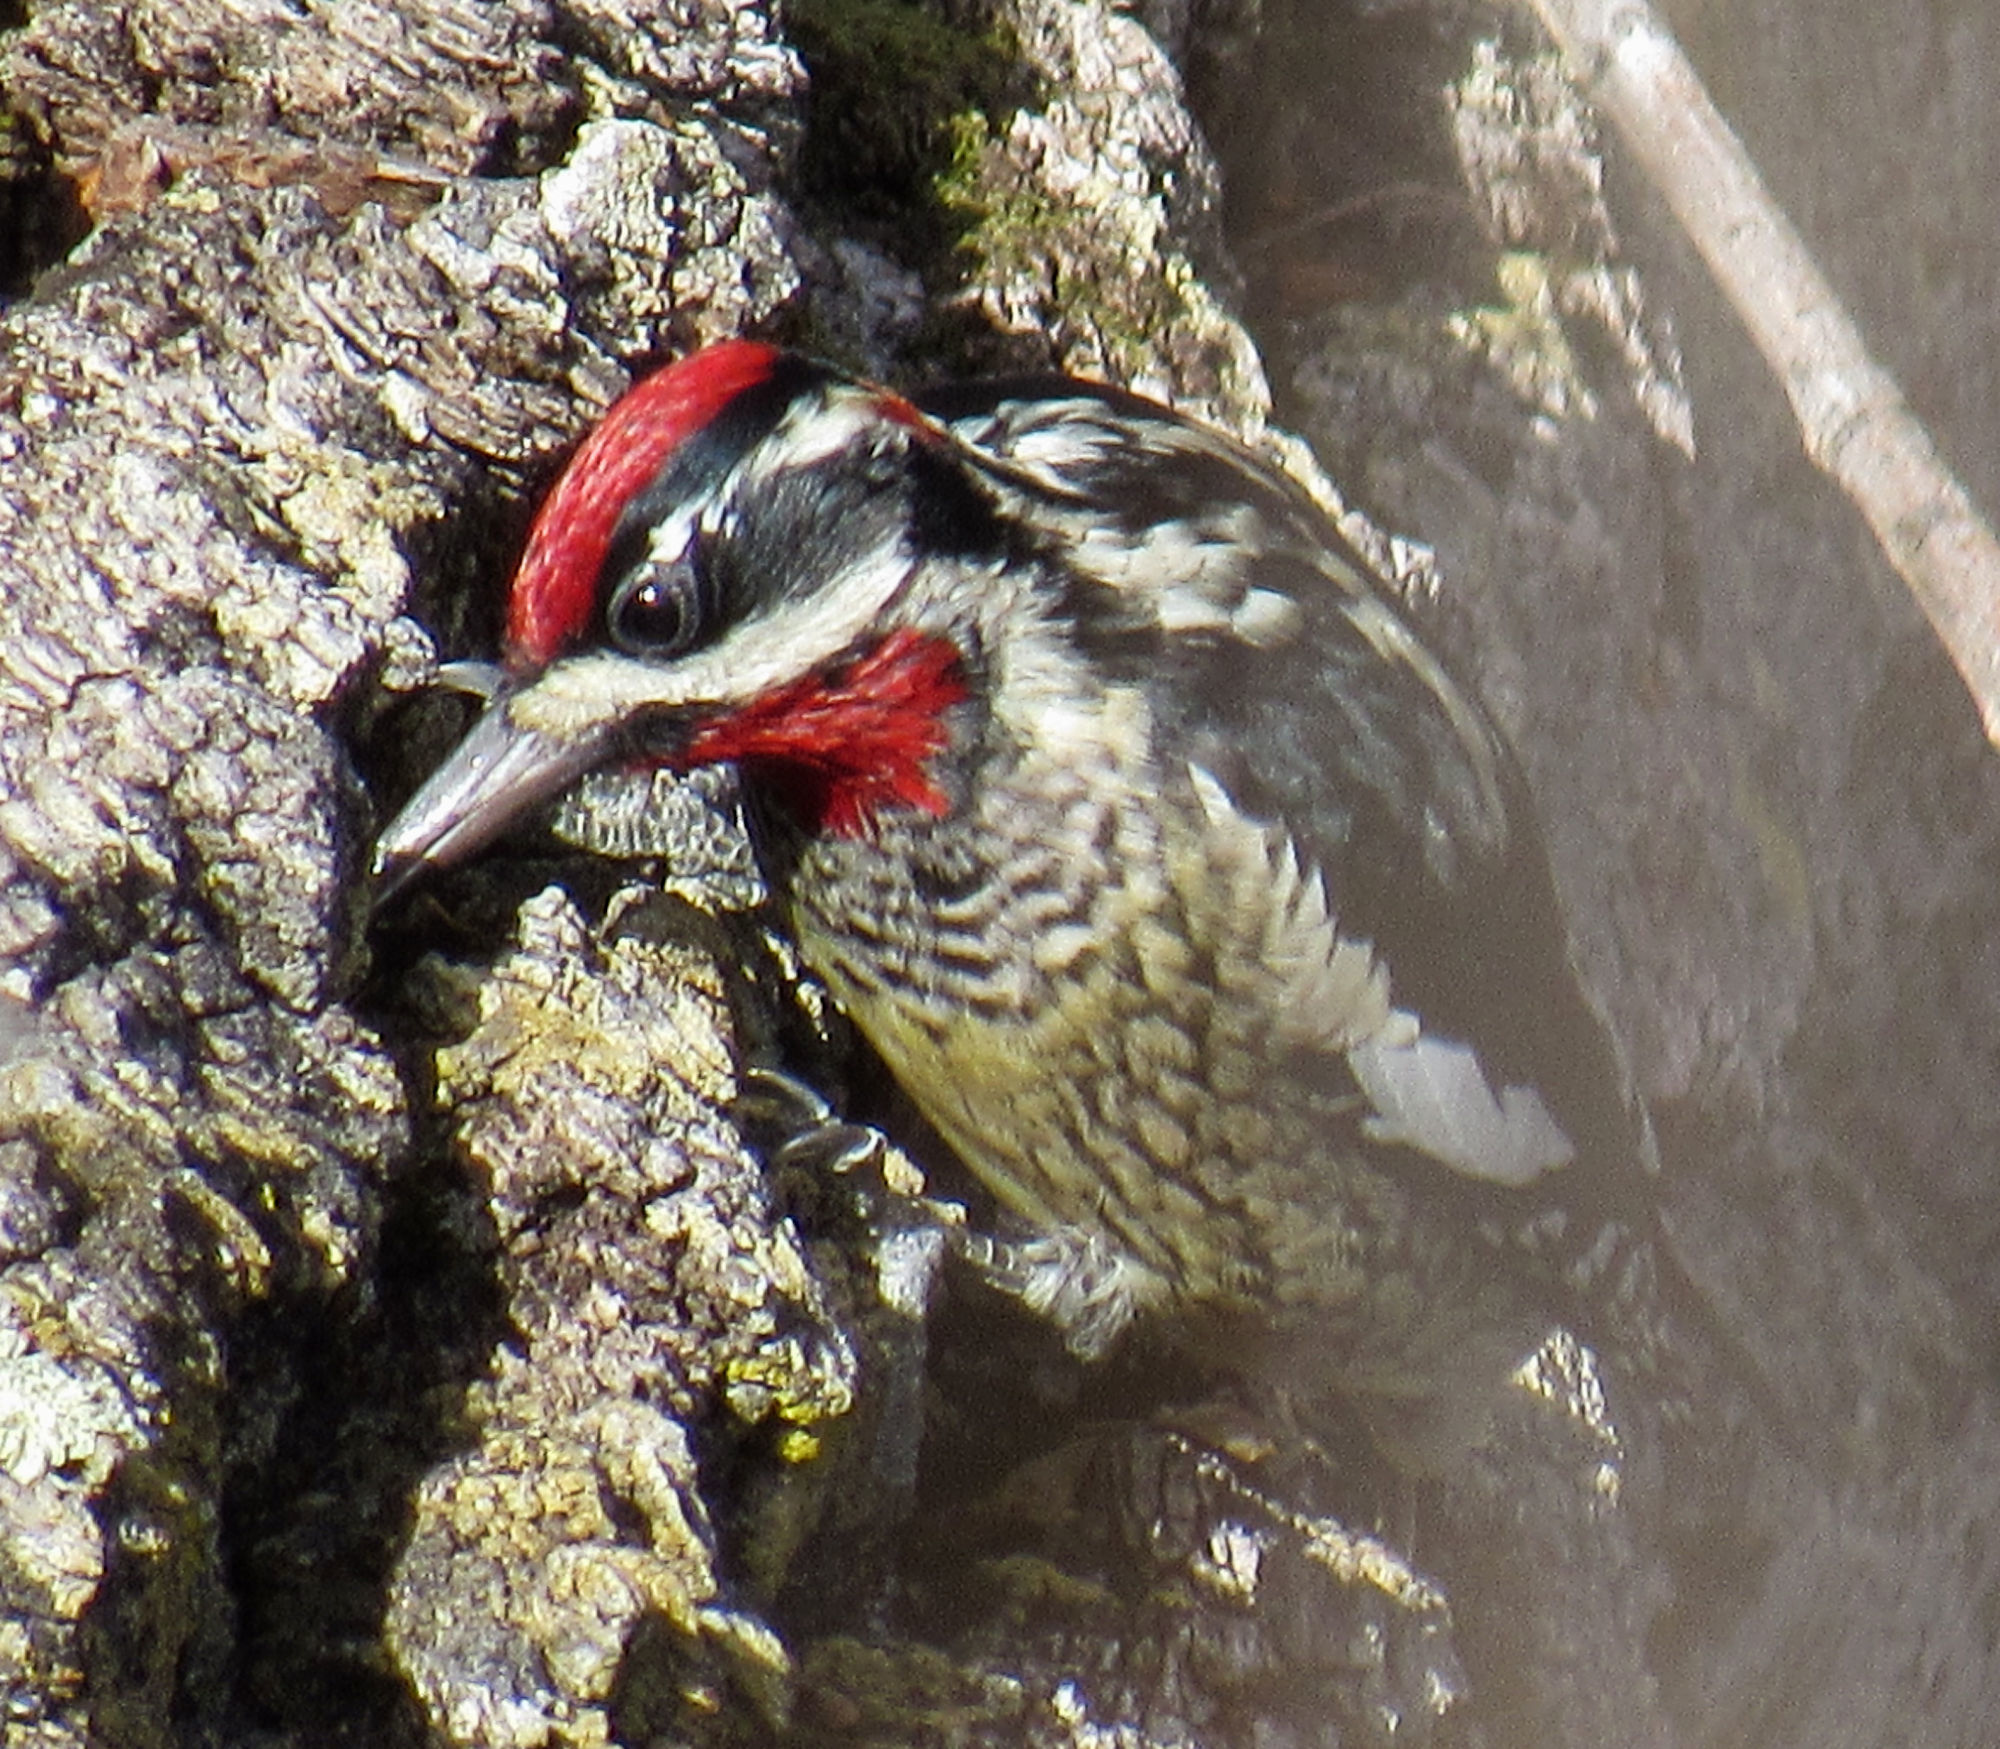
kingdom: Animalia
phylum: Chordata
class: Aves
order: Piciformes
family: Picidae
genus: Sphyrapicus
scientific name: Sphyrapicus nuchalis
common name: Red-naped sapsucker
